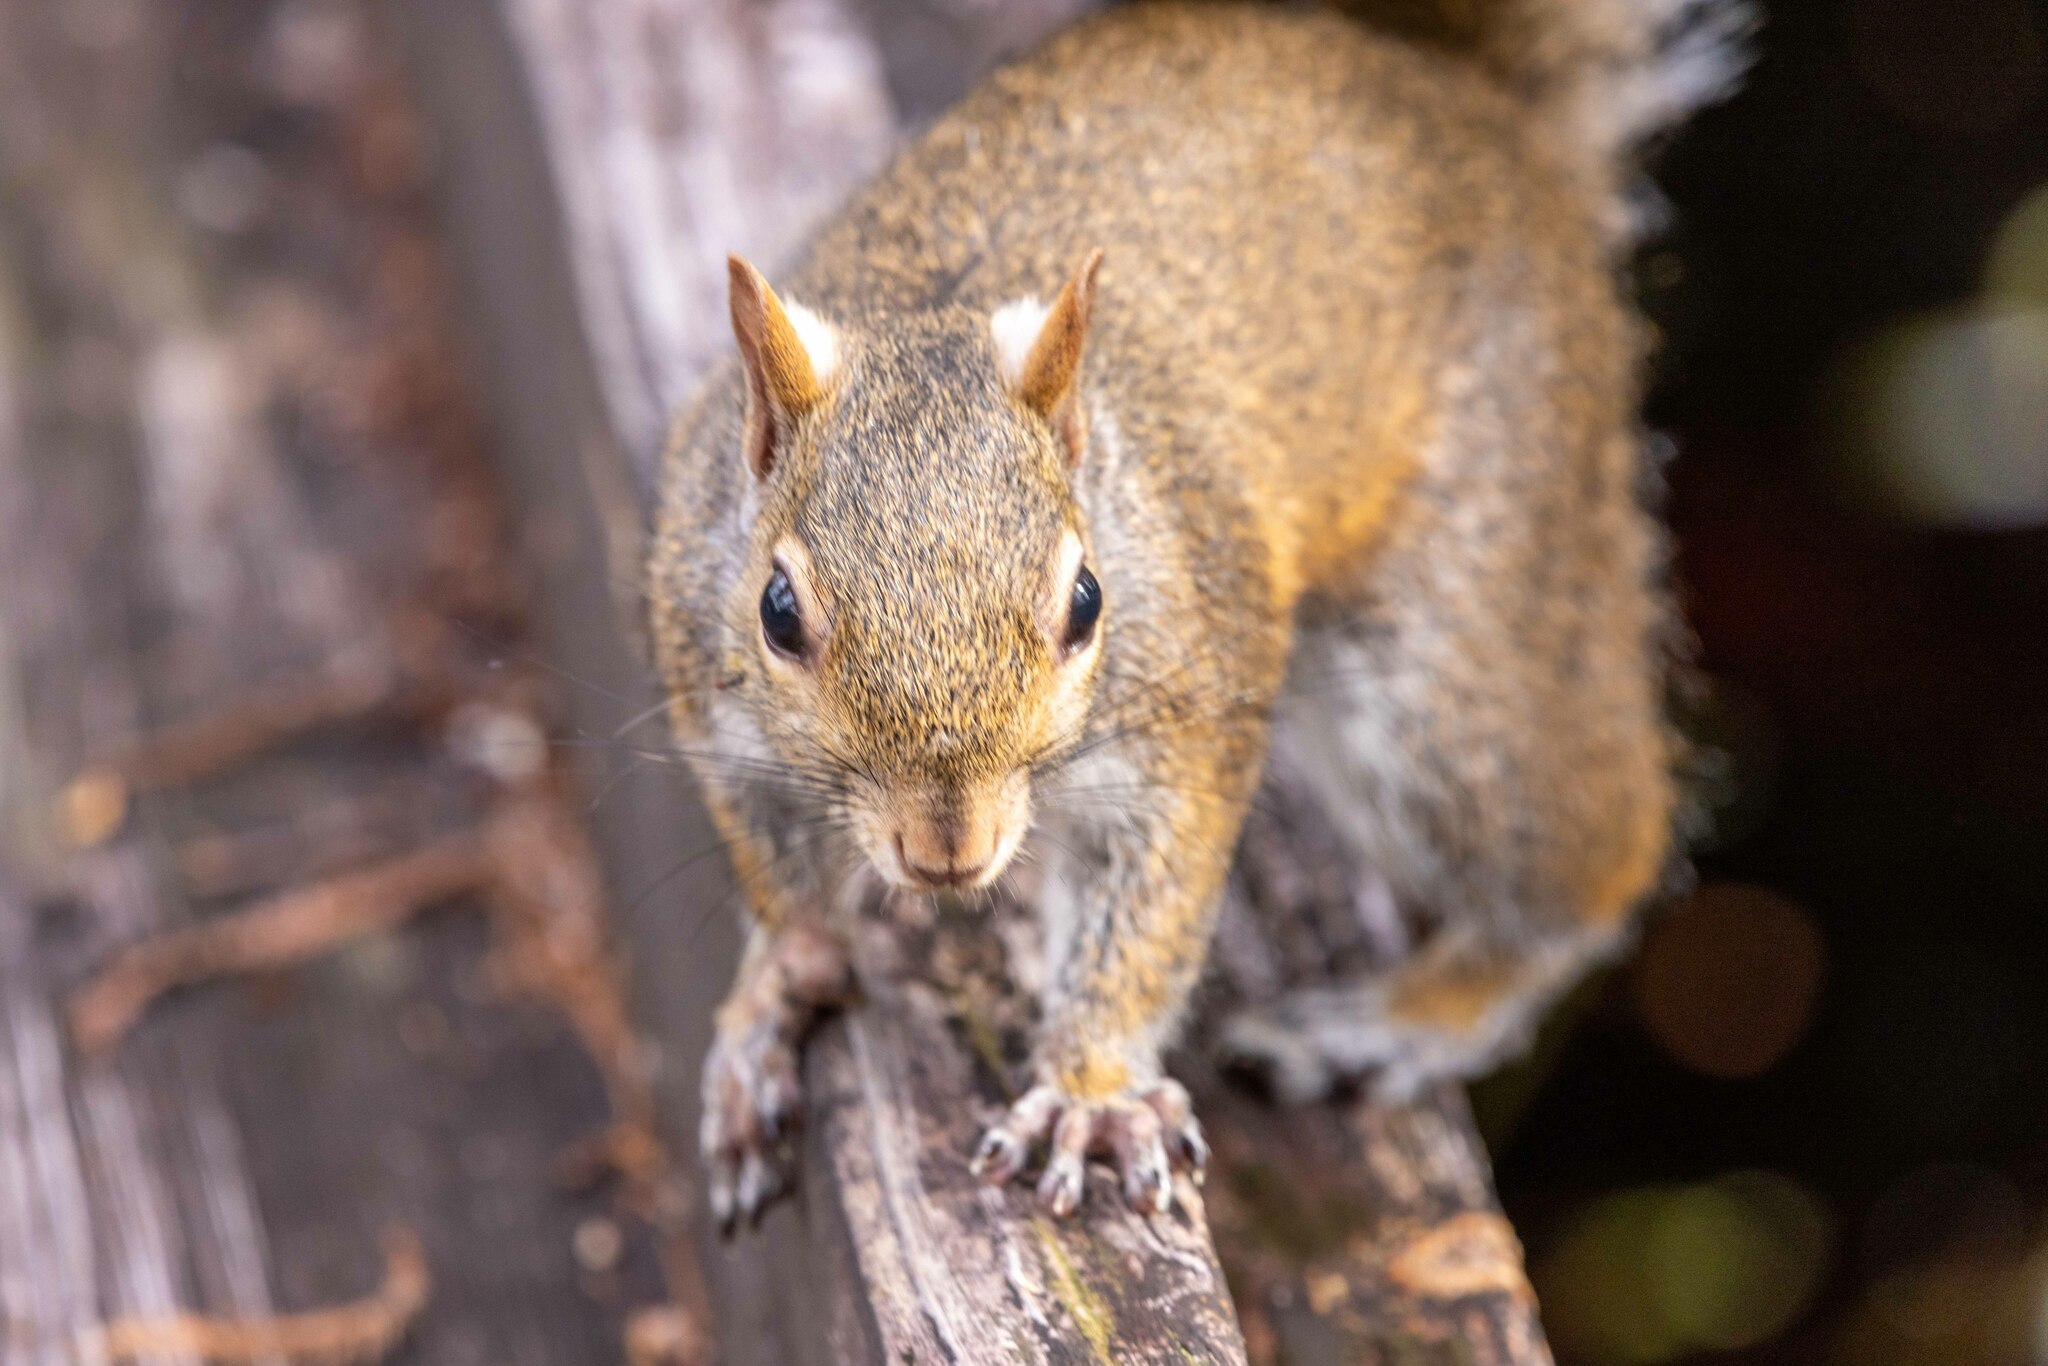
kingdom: Animalia
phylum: Chordata
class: Mammalia
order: Rodentia
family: Sciuridae
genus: Sciurus
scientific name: Sciurus carolinensis
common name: Eastern gray squirrel
